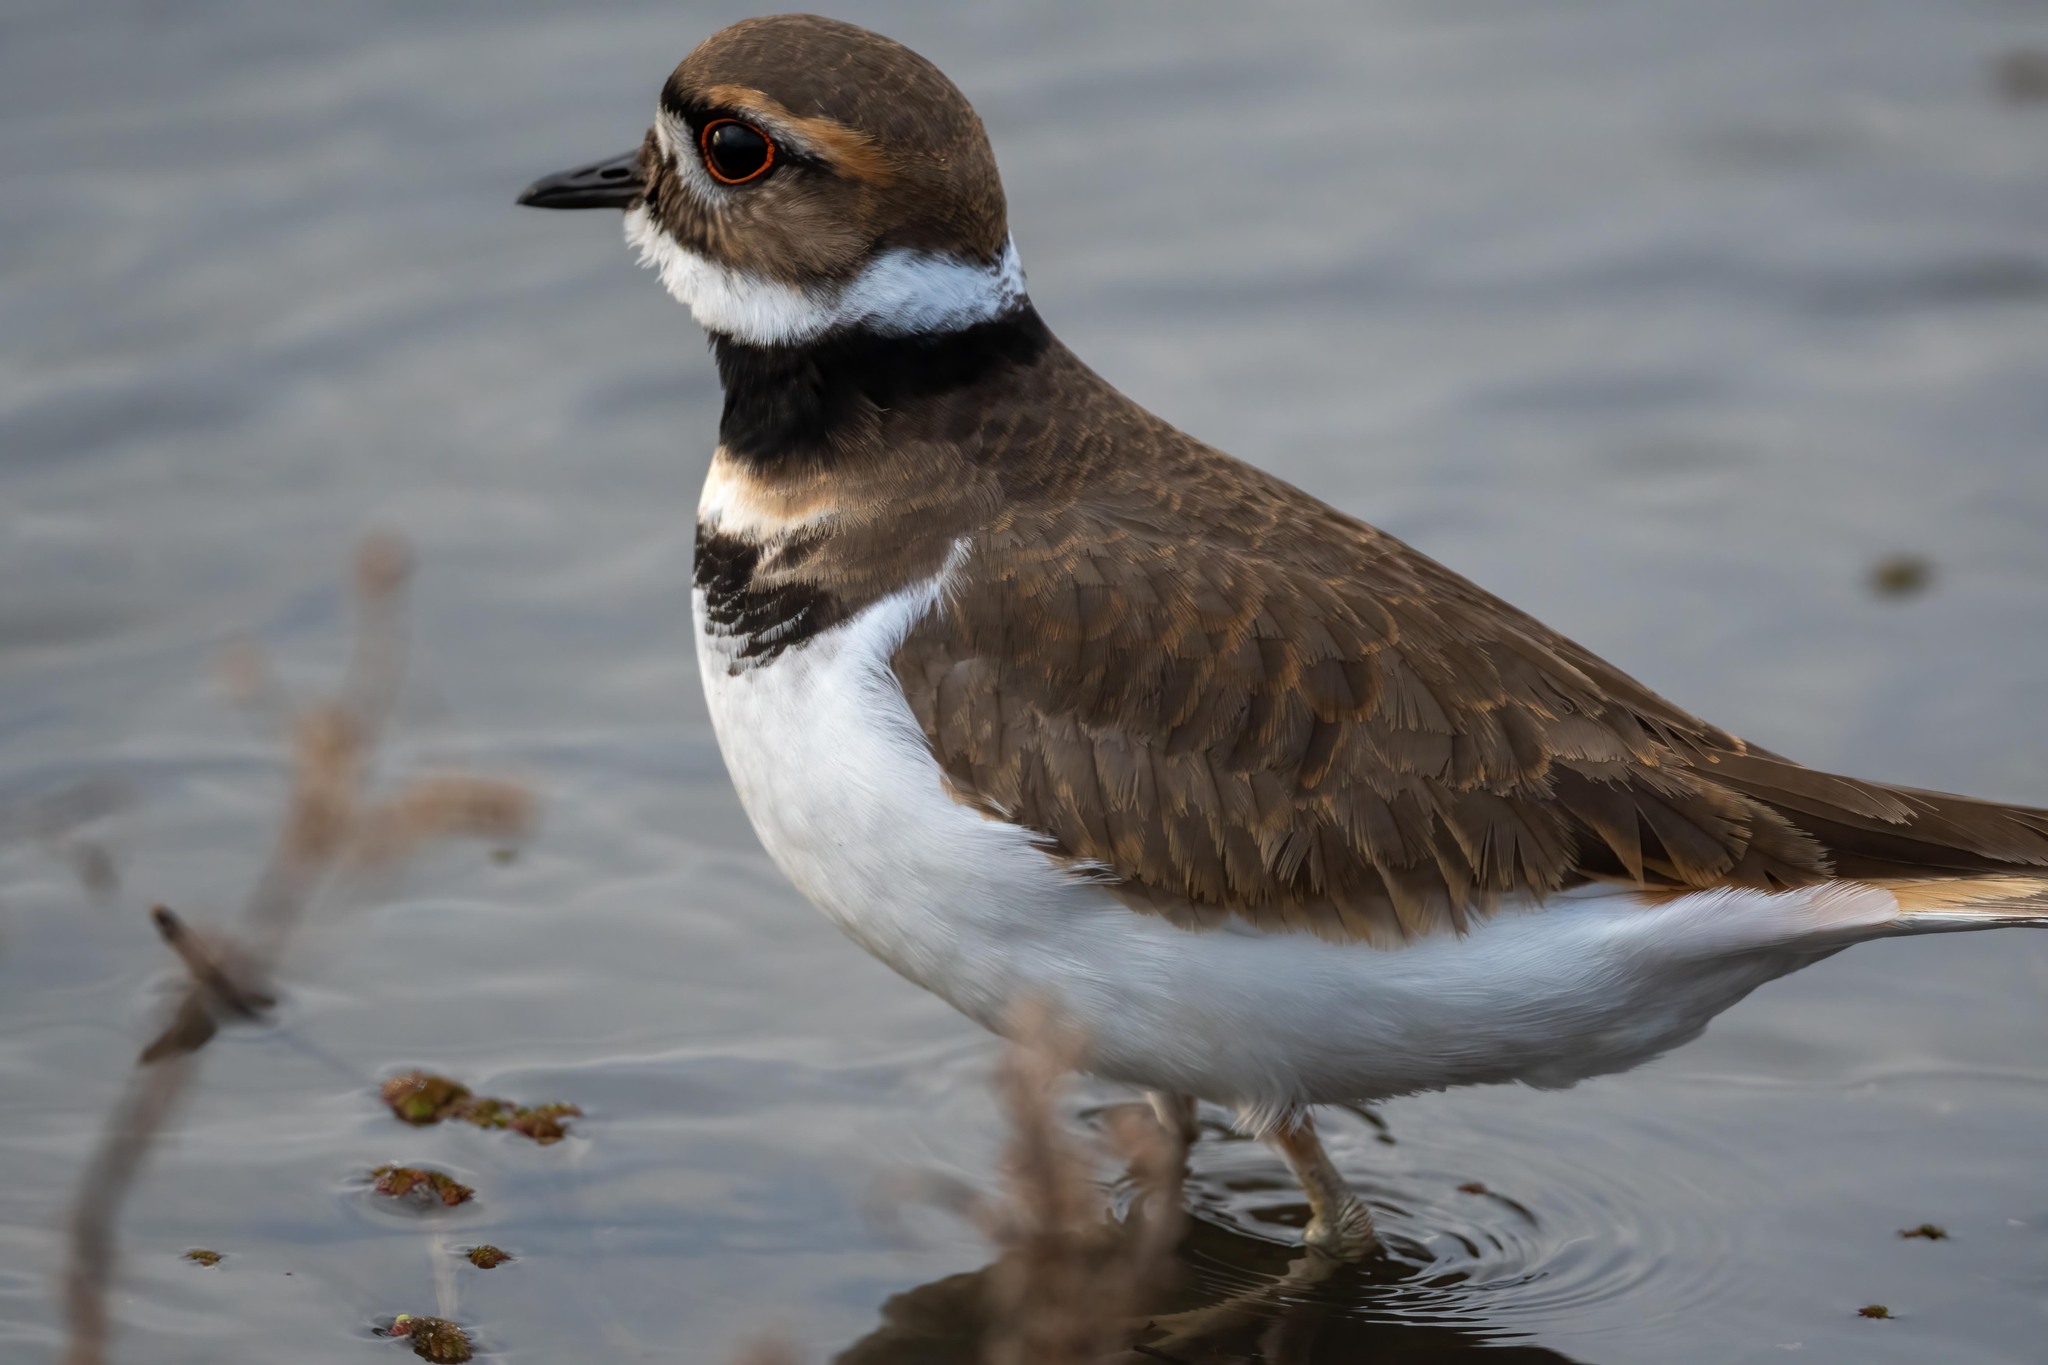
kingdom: Animalia
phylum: Chordata
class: Aves
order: Charadriiformes
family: Charadriidae
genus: Charadrius
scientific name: Charadrius vociferus
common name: Killdeer
